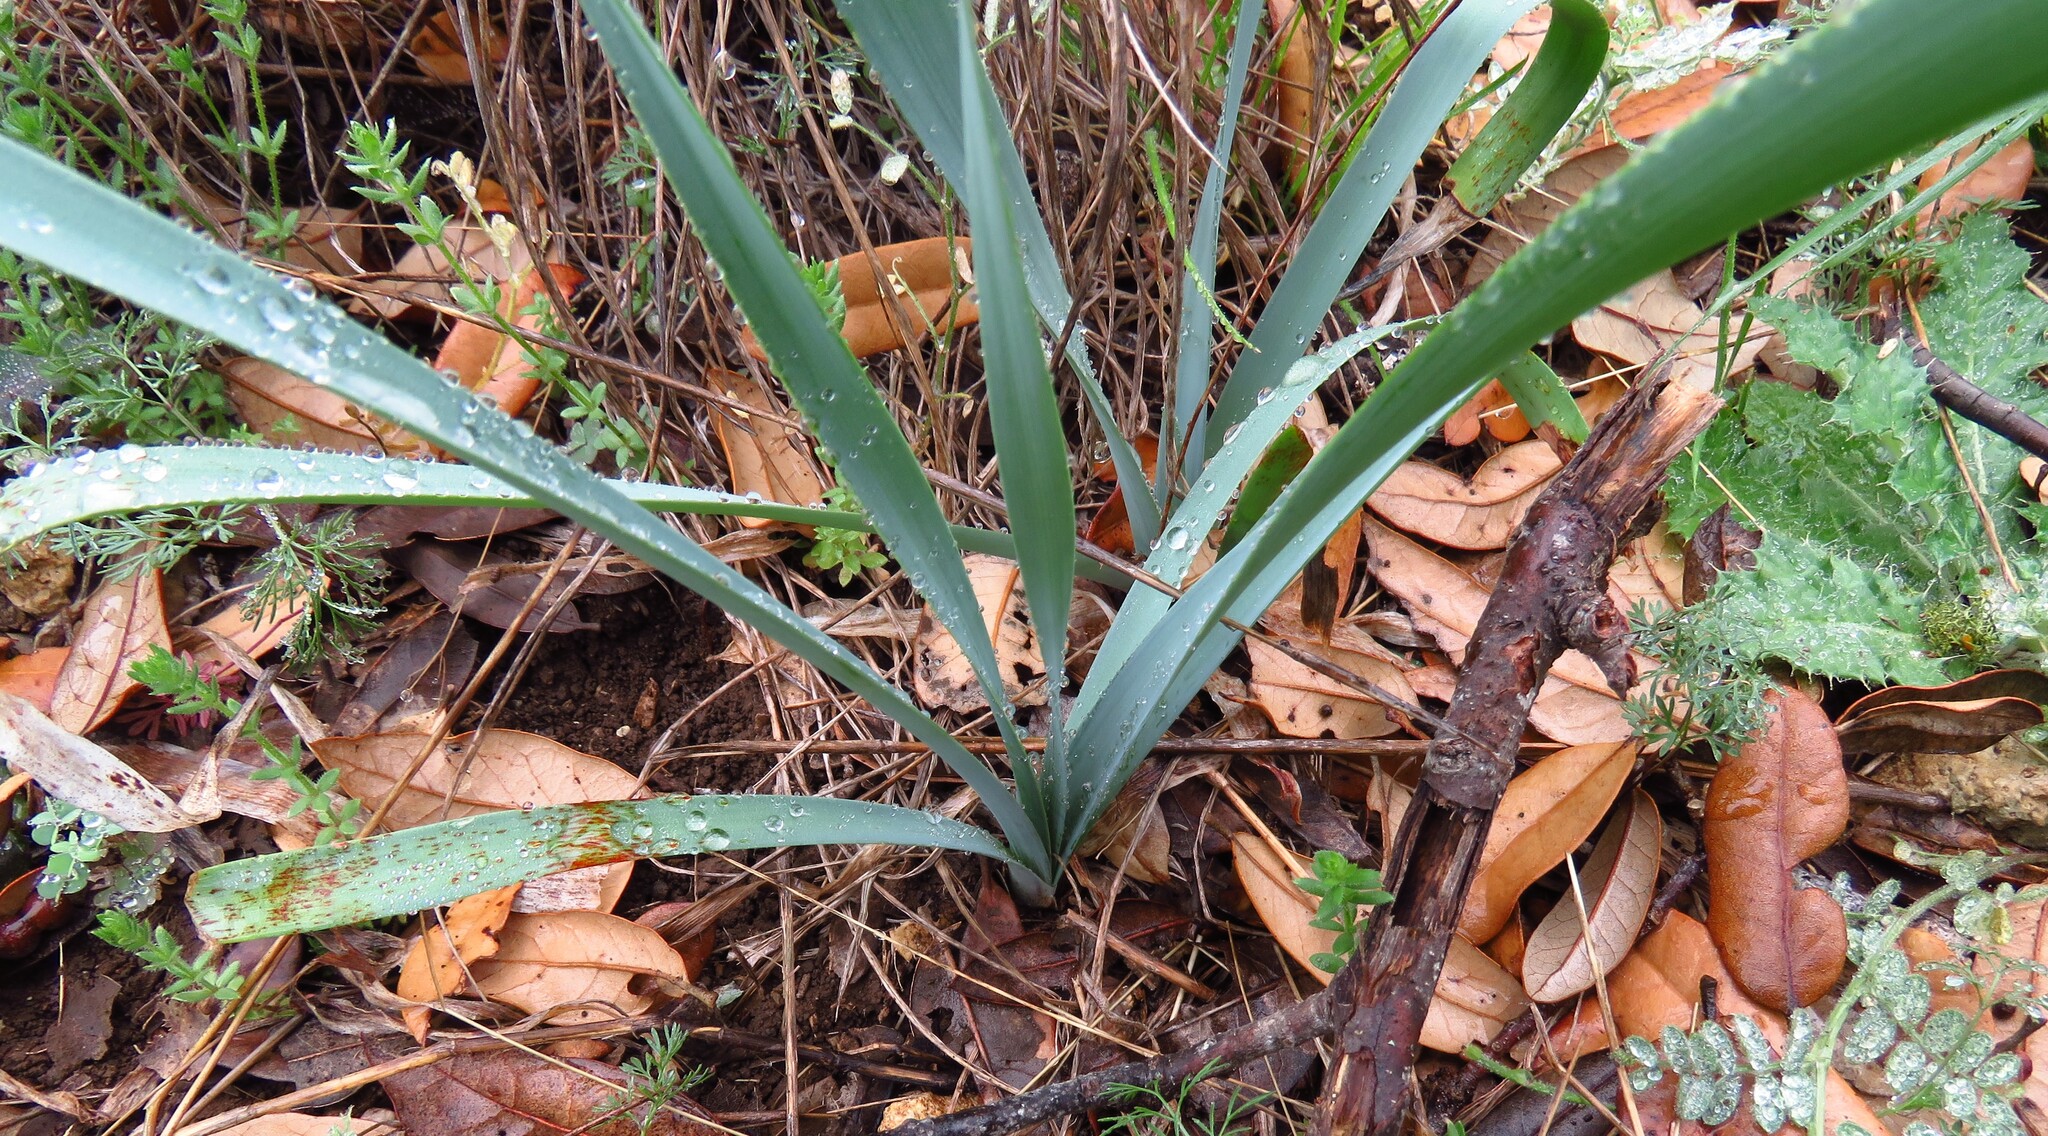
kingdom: Plantae
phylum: Tracheophyta
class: Liliopsida
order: Asparagales
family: Amaryllidaceae
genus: Zephyranthes
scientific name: Zephyranthes drummondii
